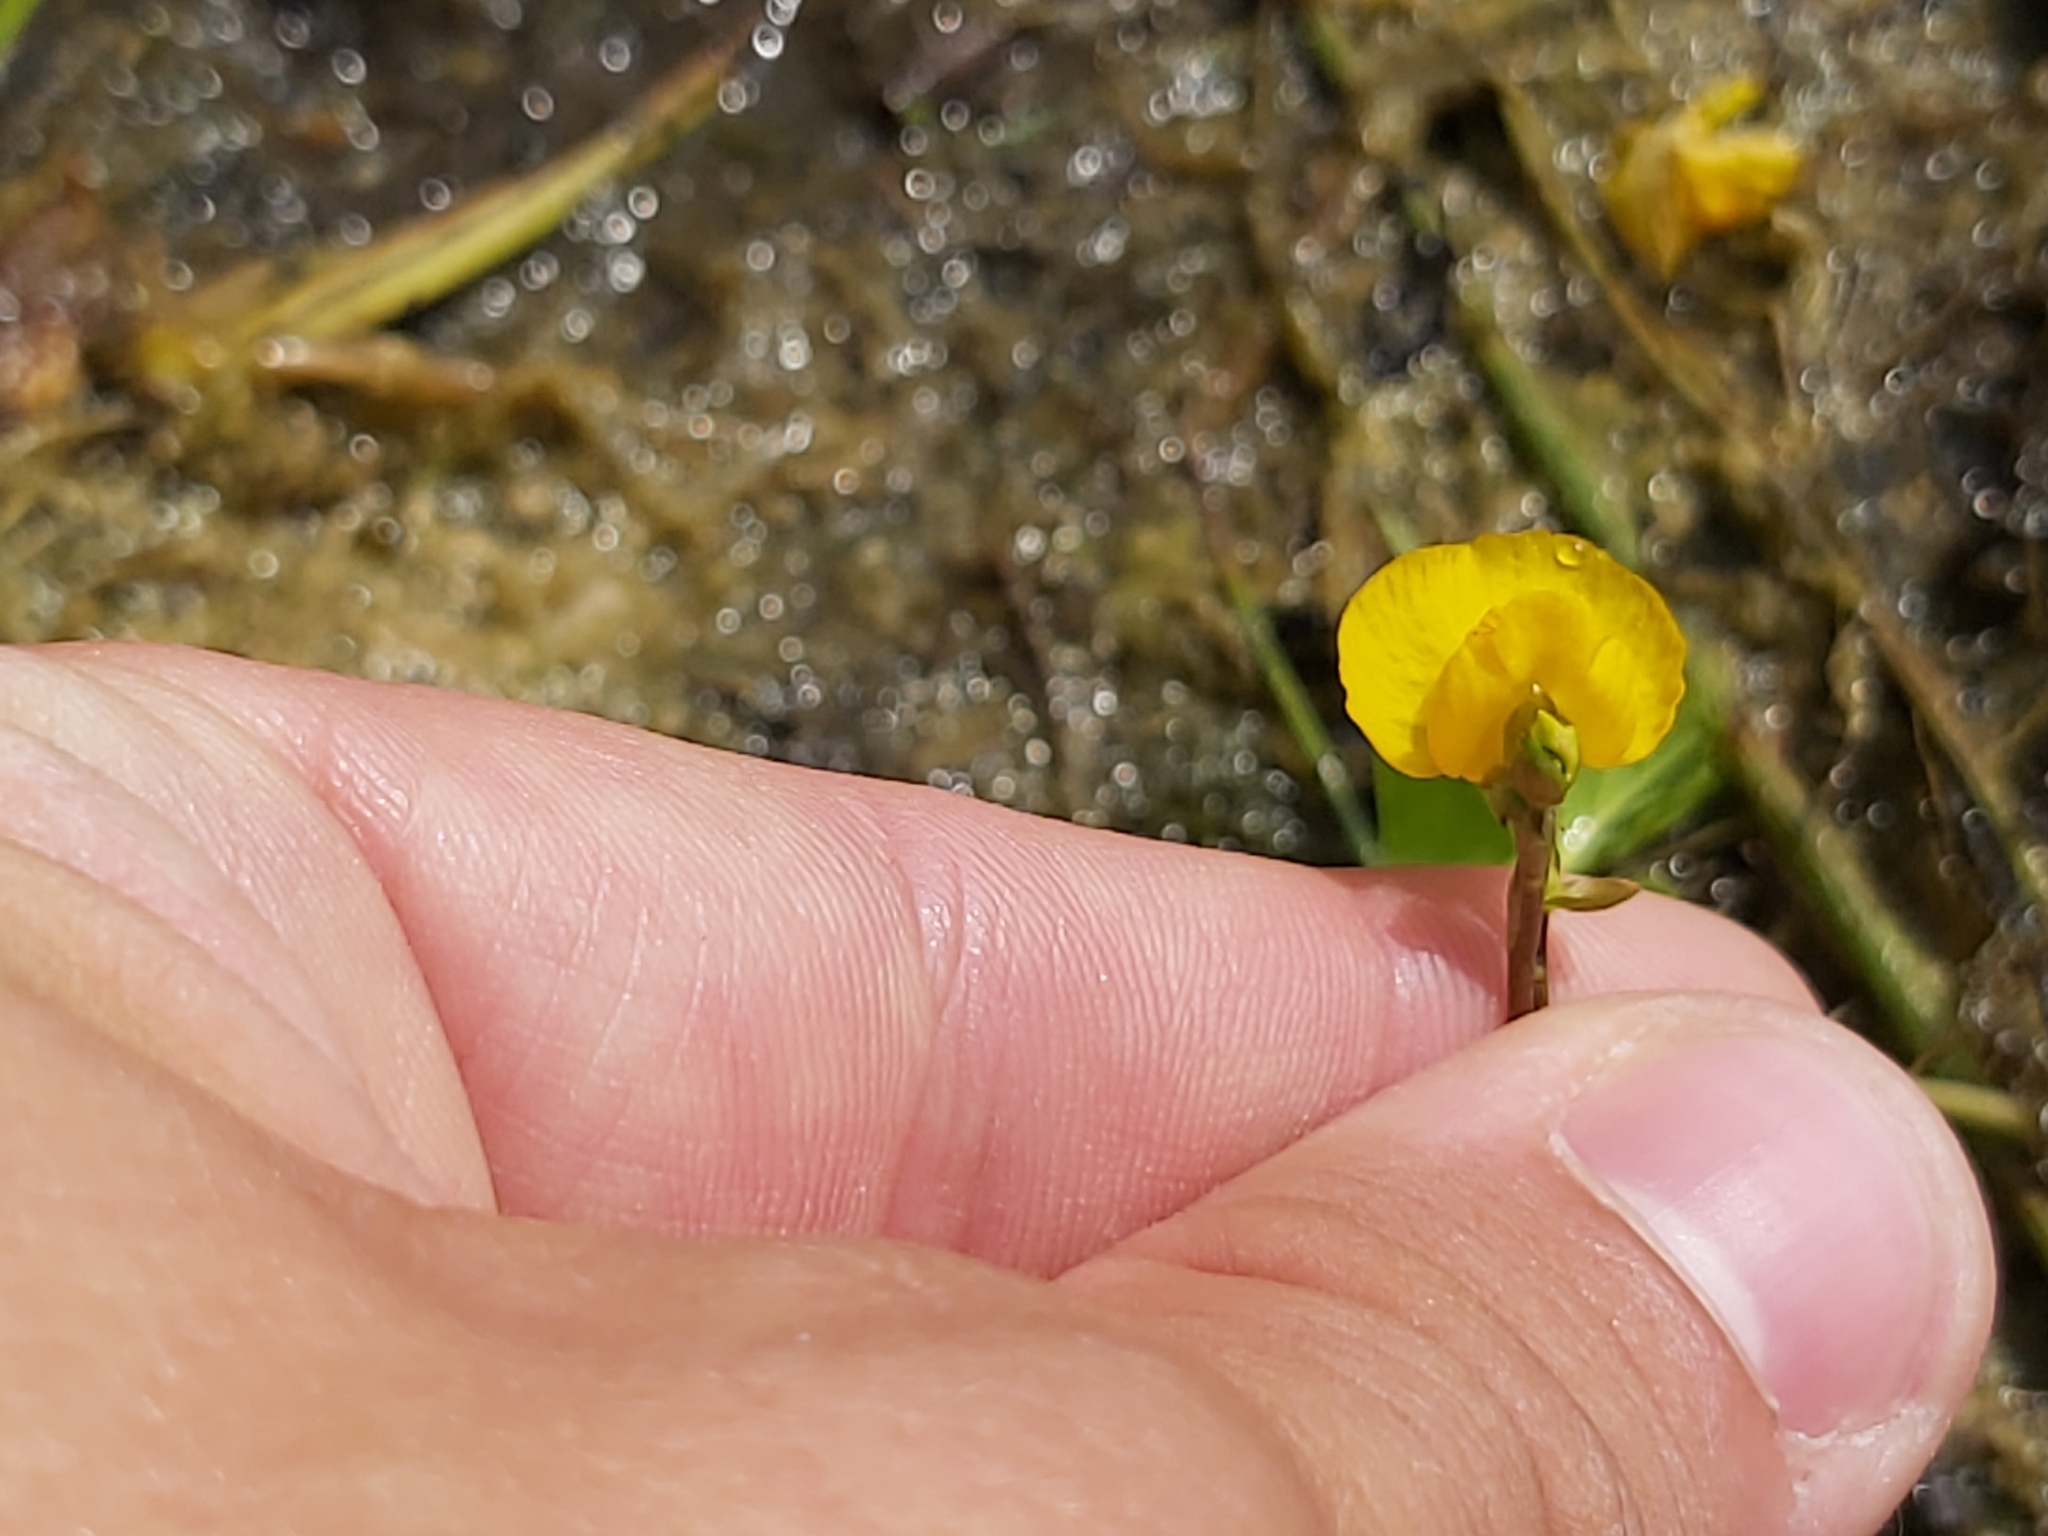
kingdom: Plantae
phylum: Tracheophyta
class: Magnoliopsida
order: Lamiales
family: Lentibulariaceae
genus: Utricularia
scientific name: Utricularia australis
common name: Bladderwort
